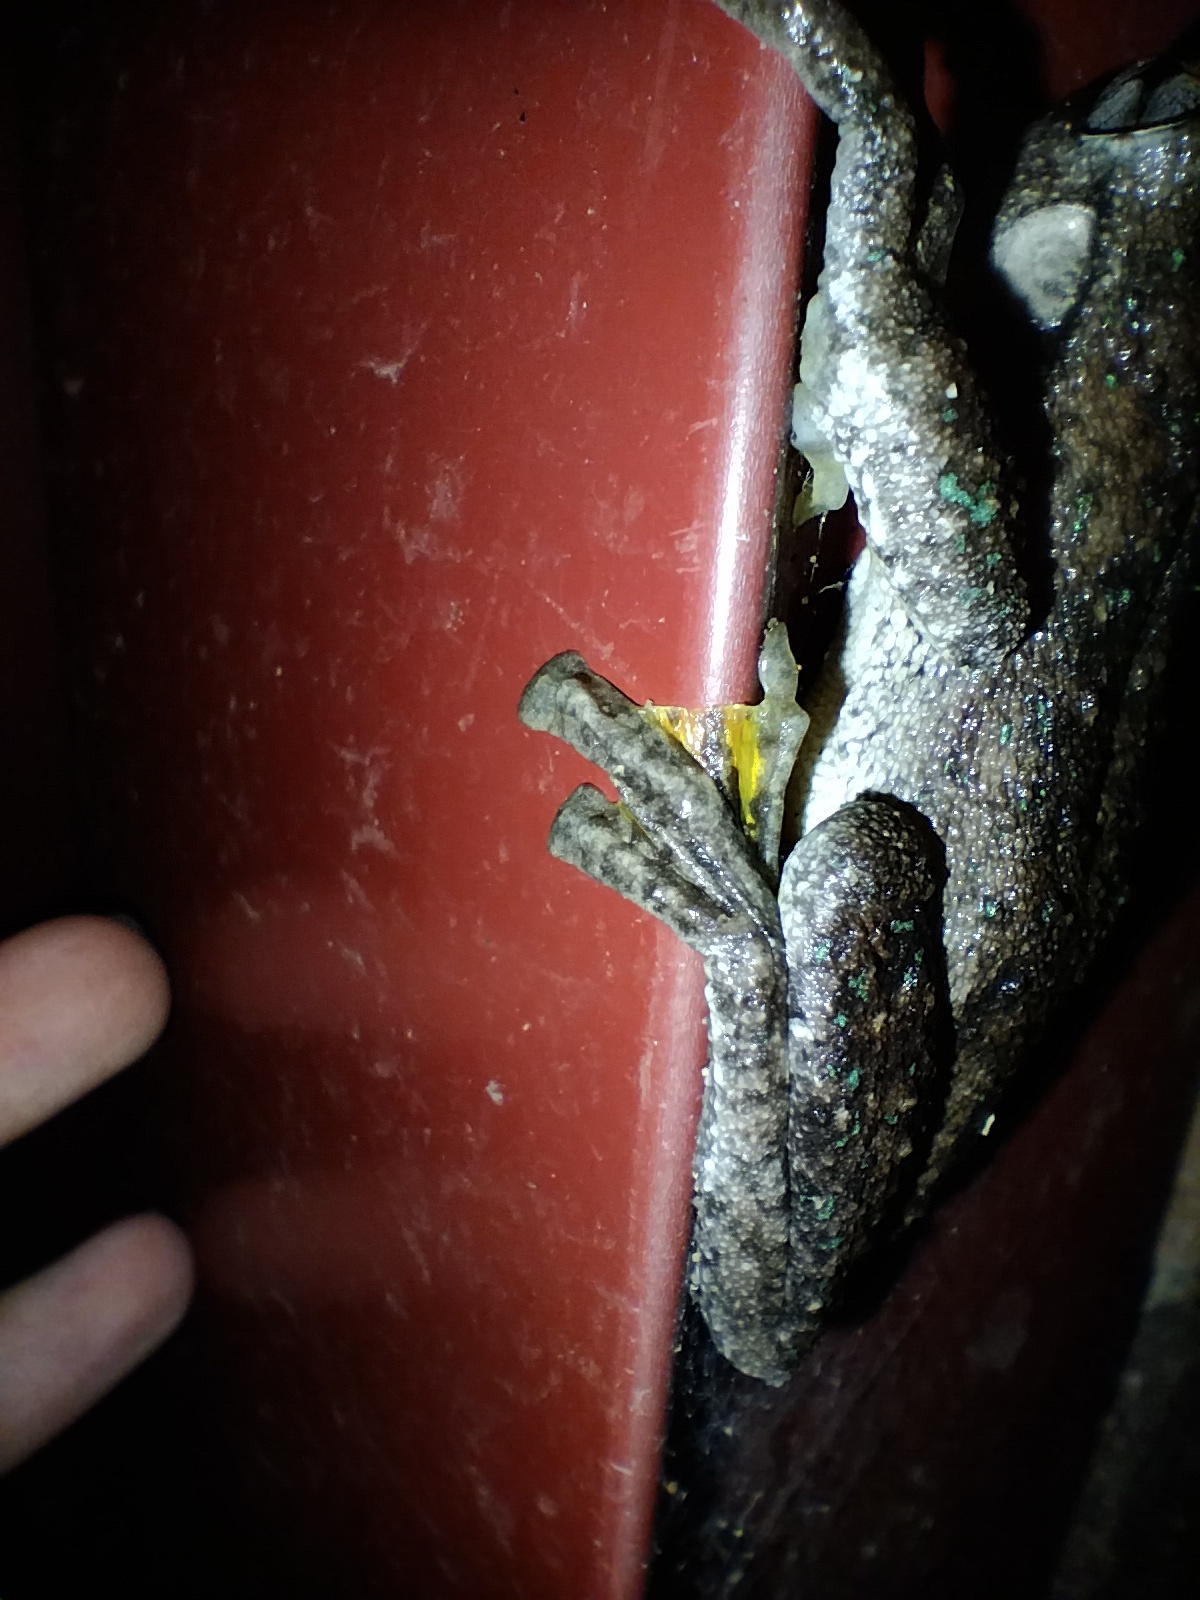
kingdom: Animalia
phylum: Chordata
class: Amphibia
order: Anura
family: Pelodryadidae
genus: Litoria
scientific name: Litoria peronii
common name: Emerald spotted treefrog
